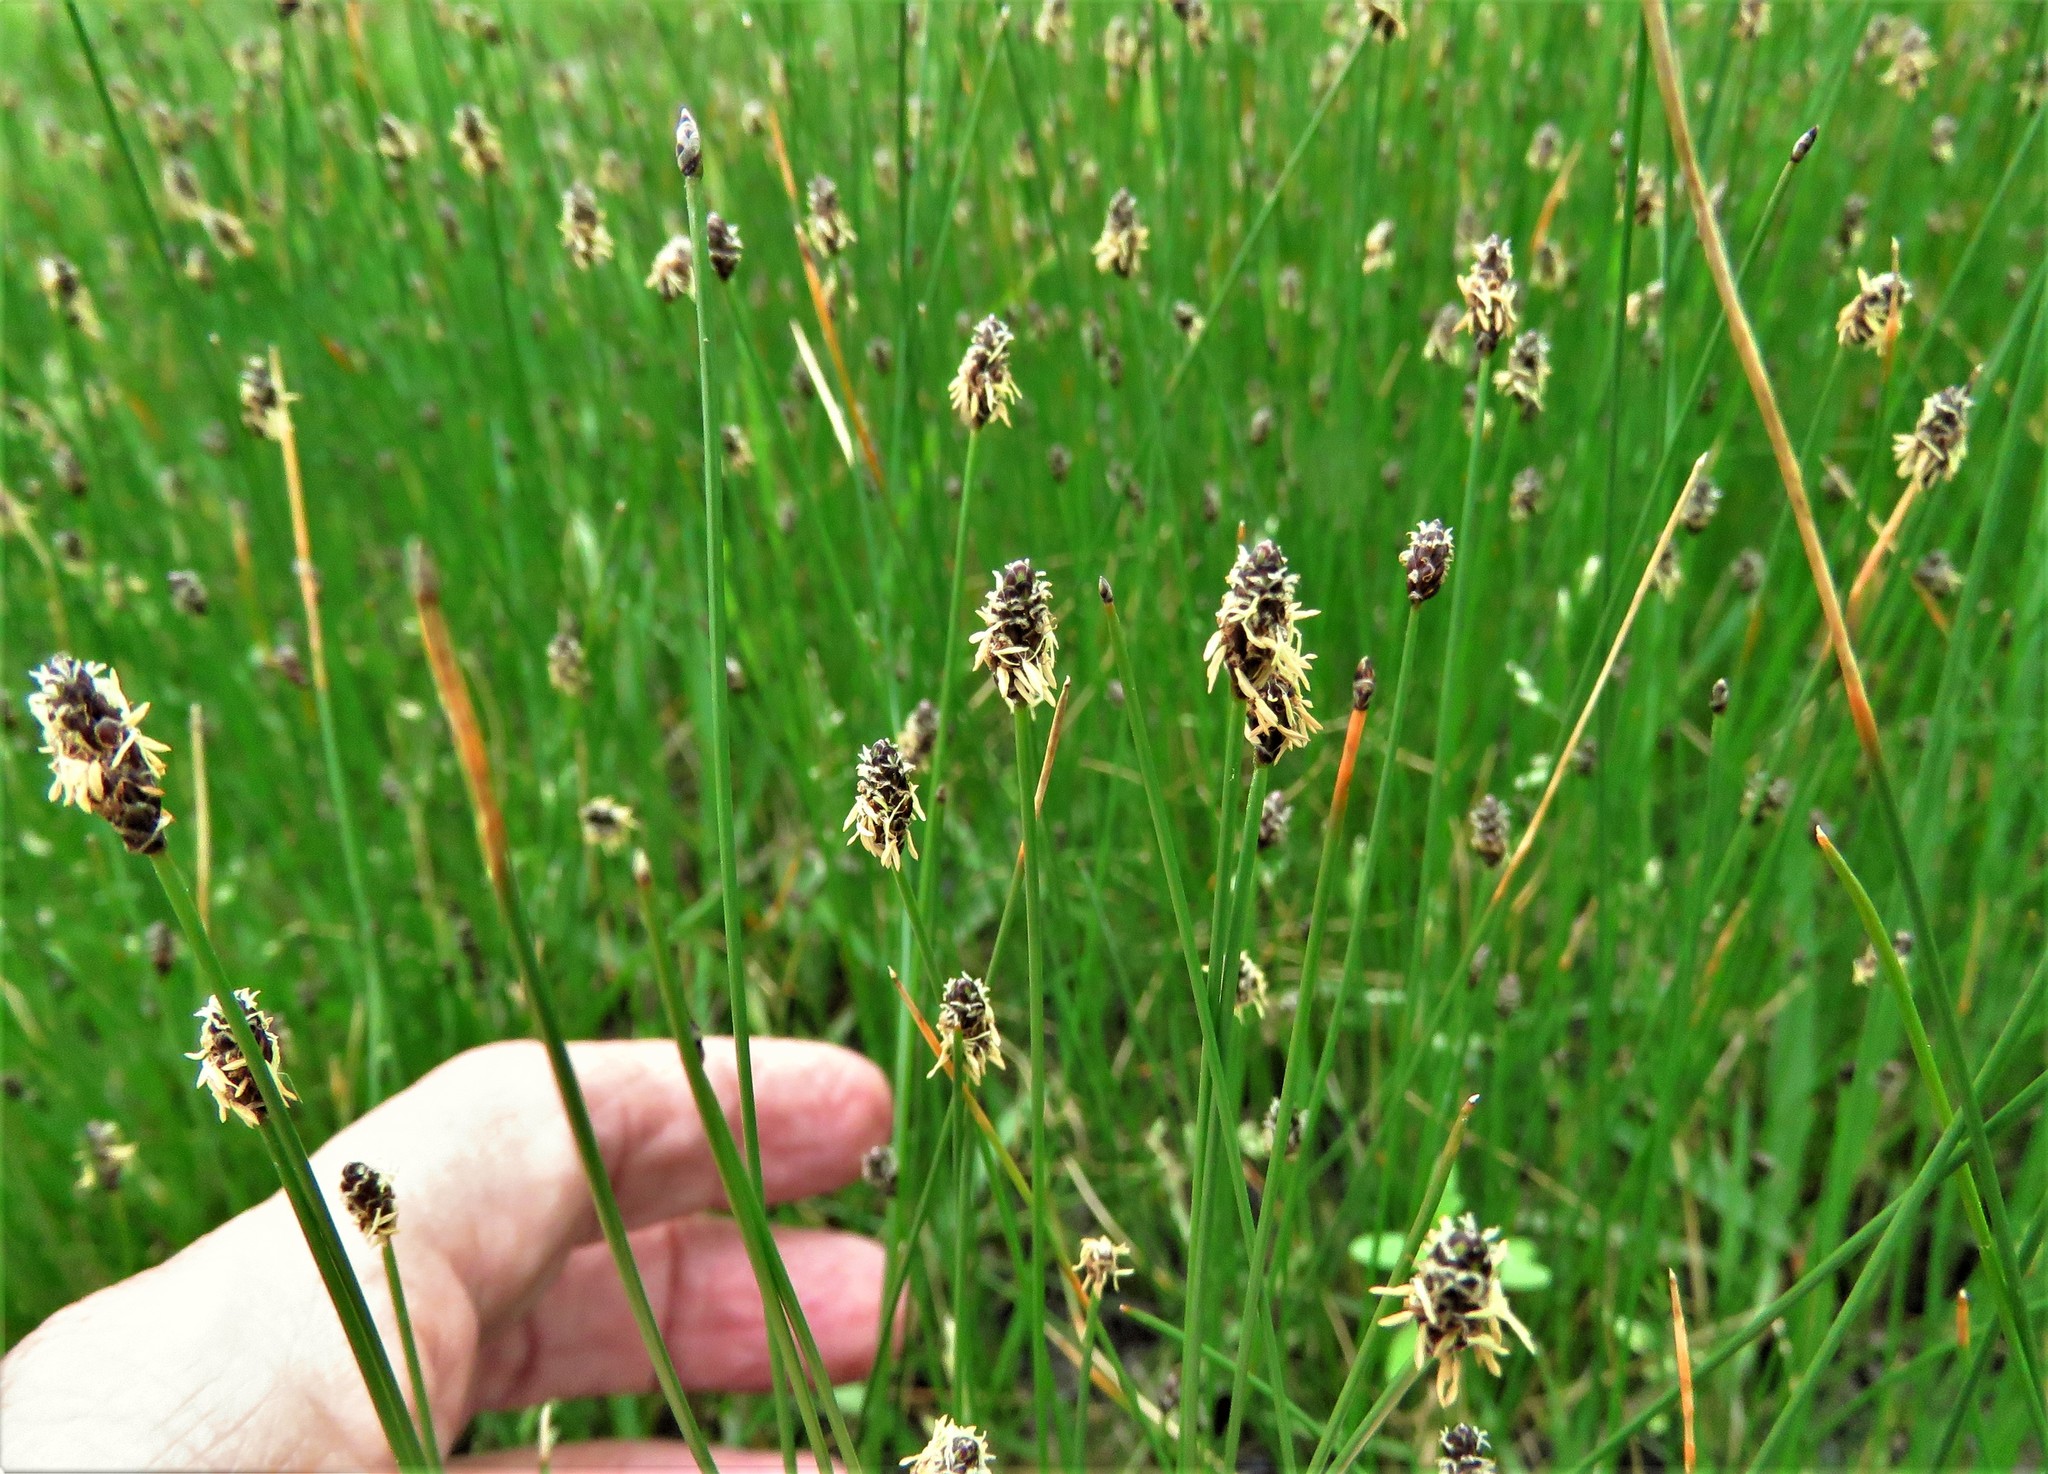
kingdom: Plantae
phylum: Tracheophyta
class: Liliopsida
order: Poales
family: Cyperaceae
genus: Eleocharis
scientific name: Eleocharis compressa
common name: Flat-stem spike-rush
